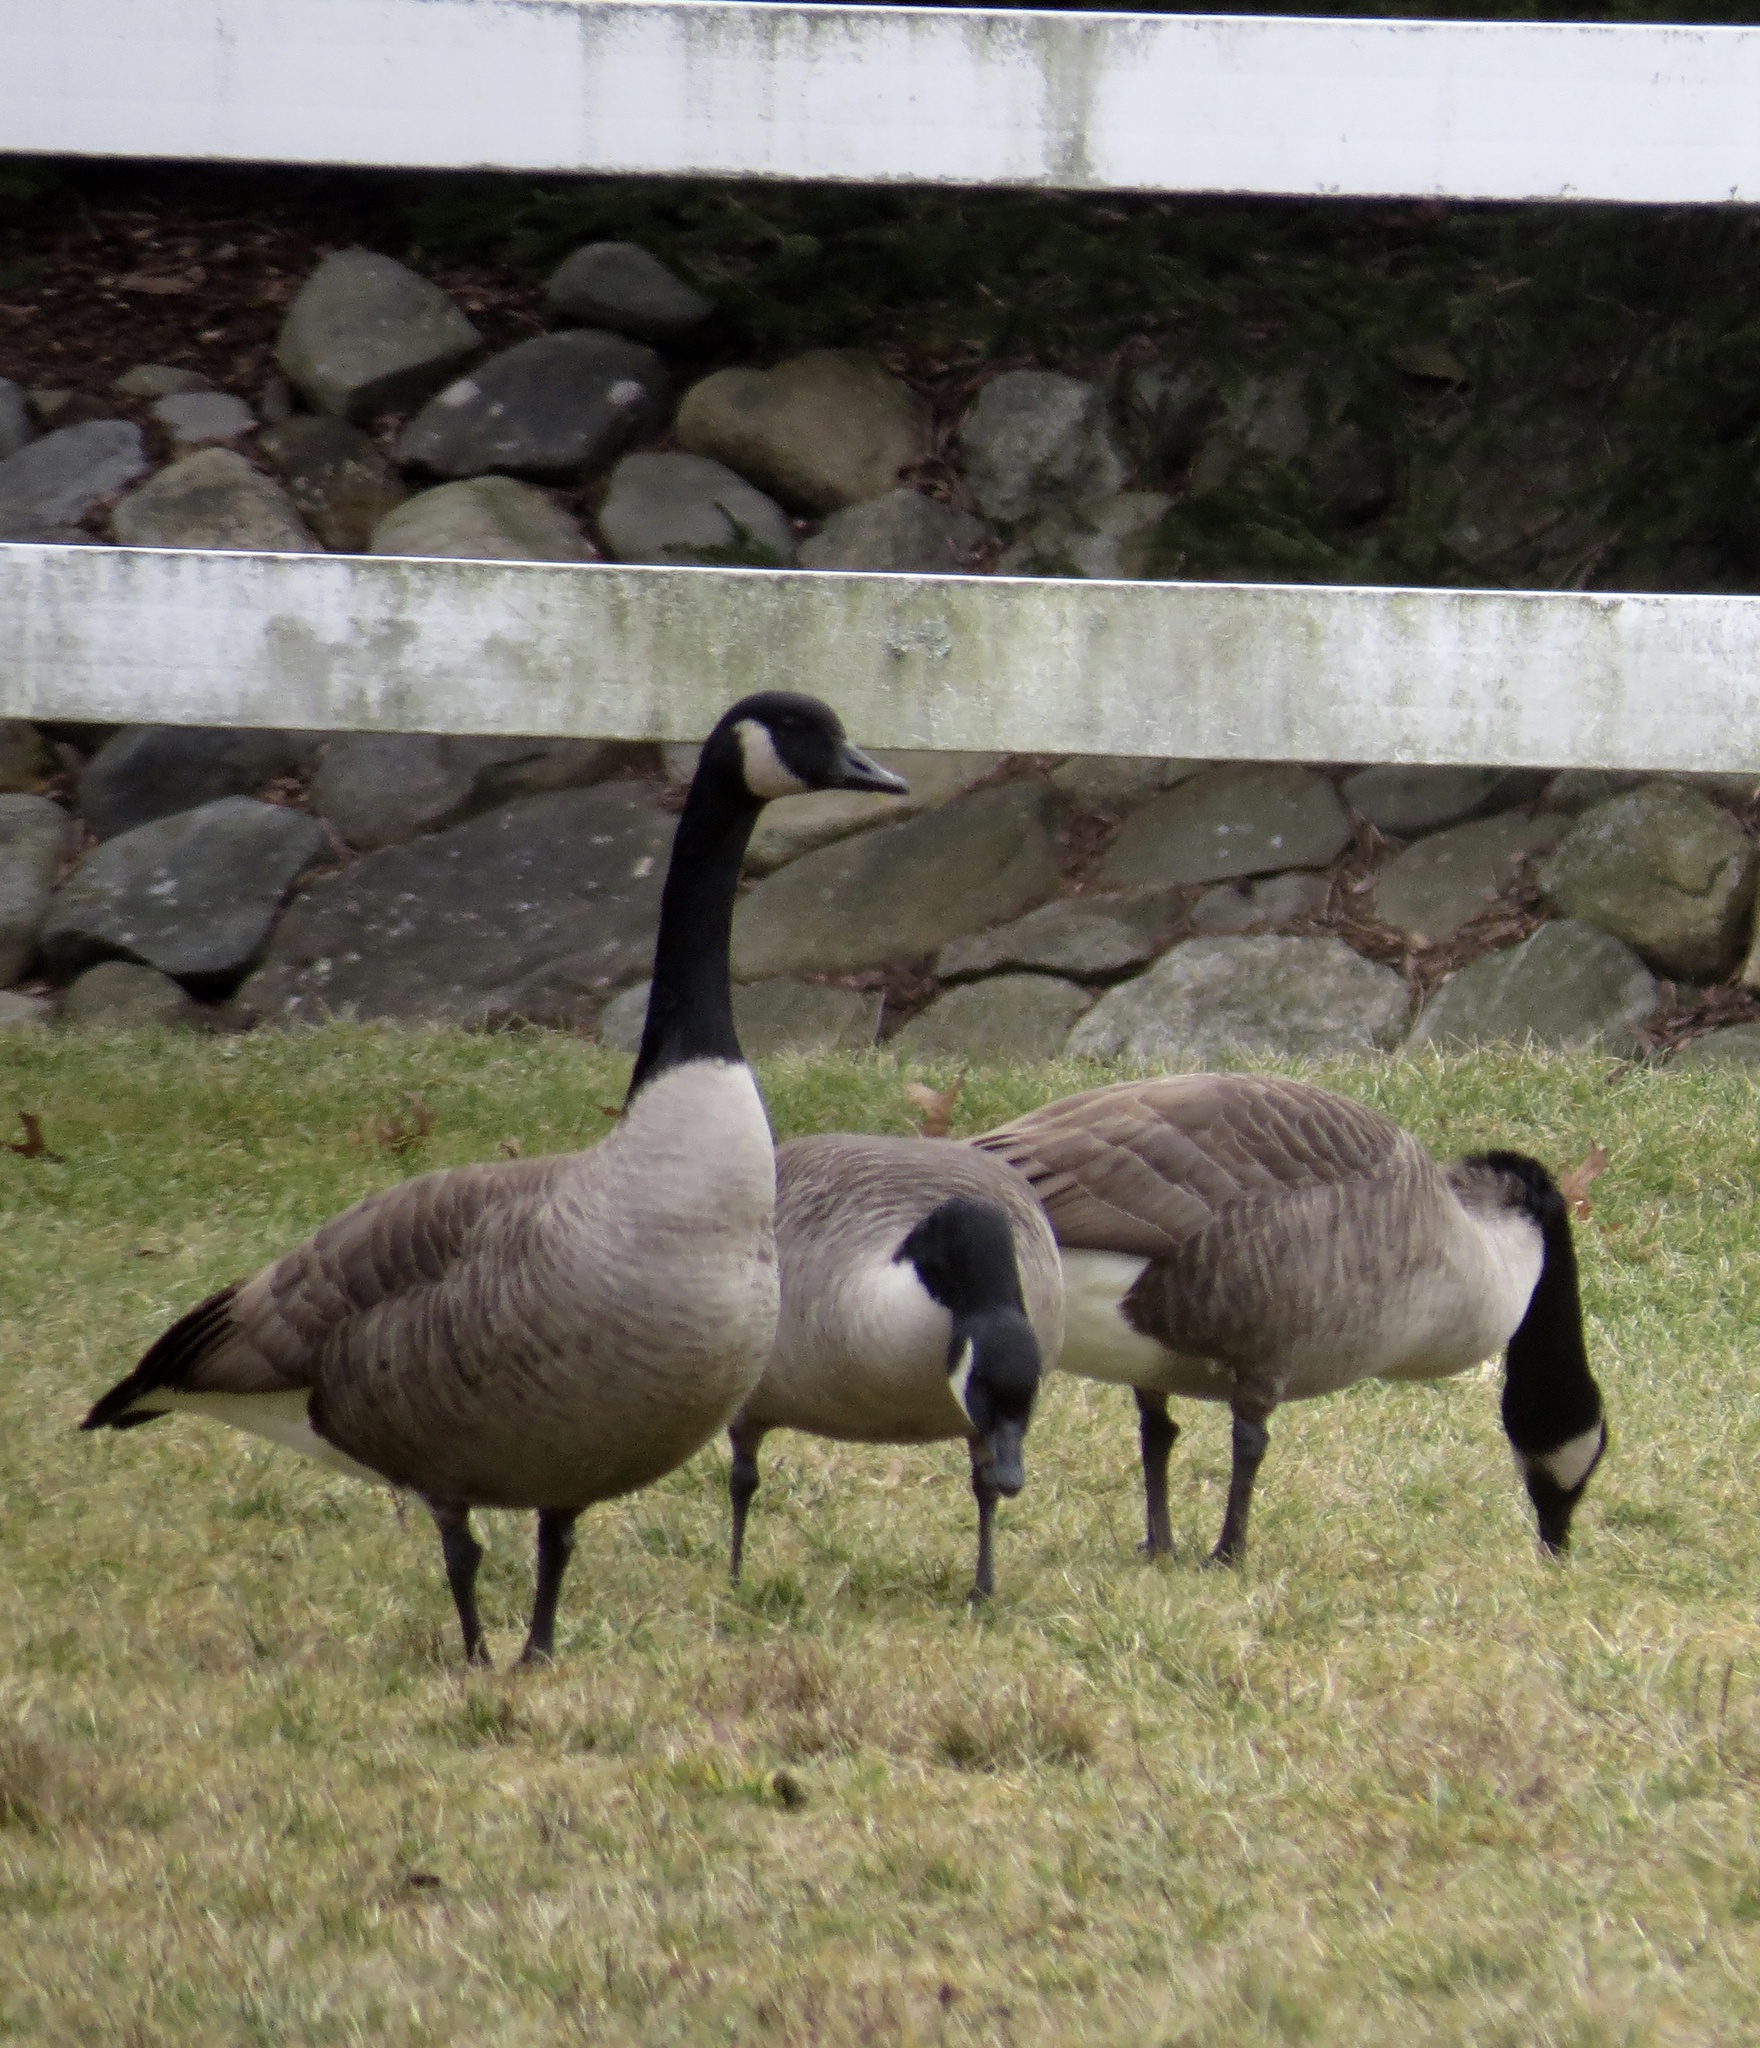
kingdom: Animalia
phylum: Chordata
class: Aves
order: Anseriformes
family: Anatidae
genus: Branta
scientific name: Branta canadensis
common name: Canada goose
